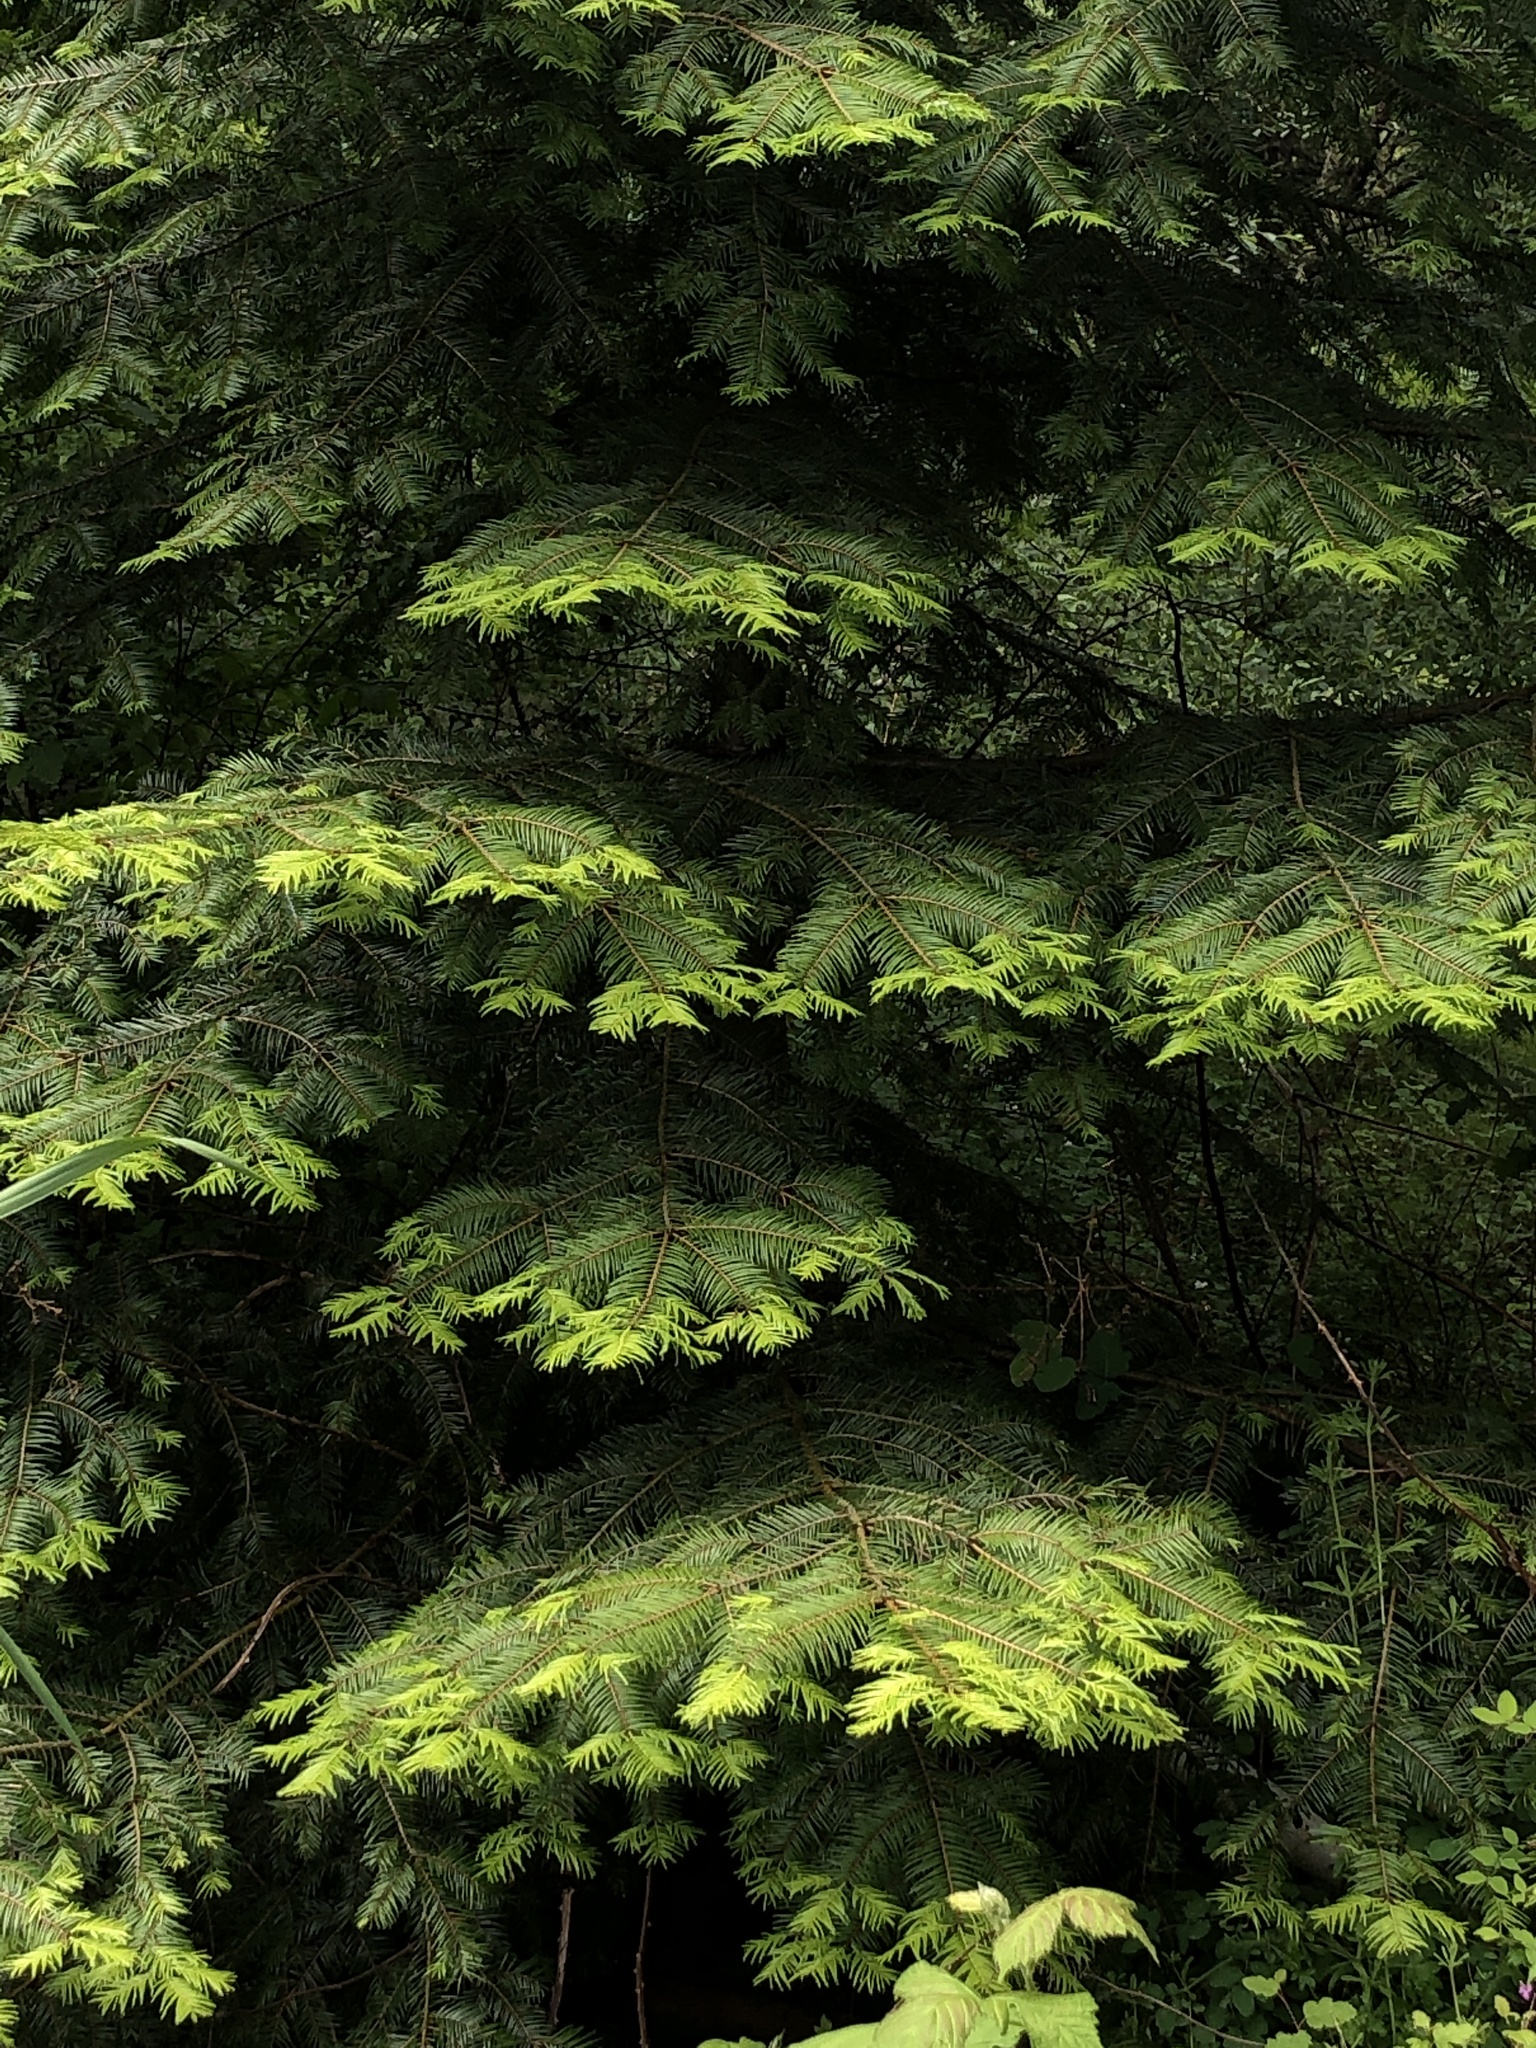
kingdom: Plantae
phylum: Tracheophyta
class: Pinopsida
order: Pinales
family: Pinaceae
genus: Abies
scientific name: Abies grandis
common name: Giant fir
